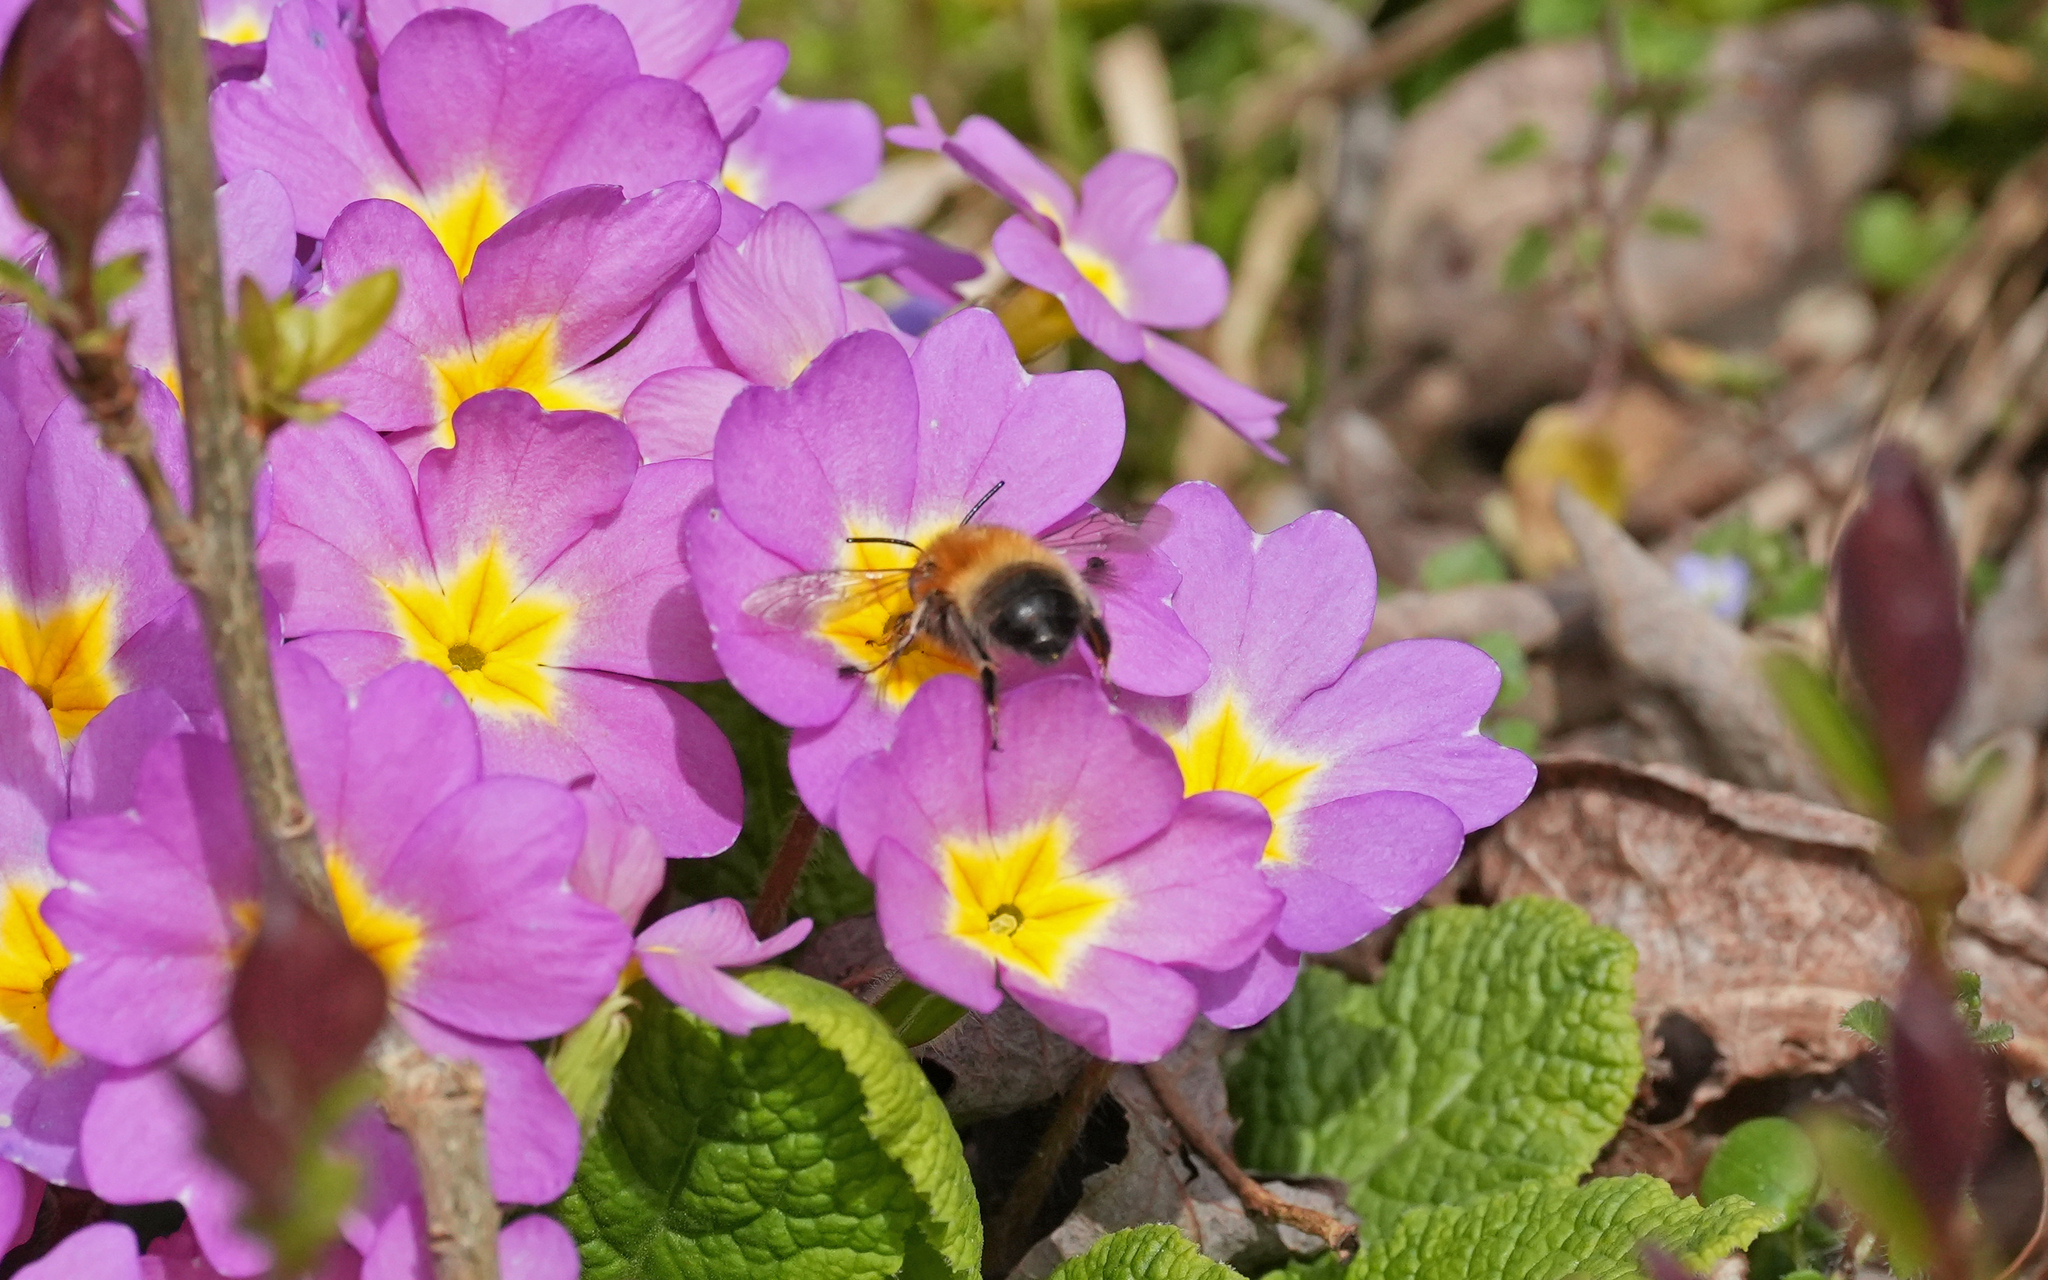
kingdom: Animalia
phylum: Arthropoda
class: Insecta
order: Hymenoptera
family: Apidae
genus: Anthophora
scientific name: Anthophora plumipes
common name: Hairy-footed flower bee
